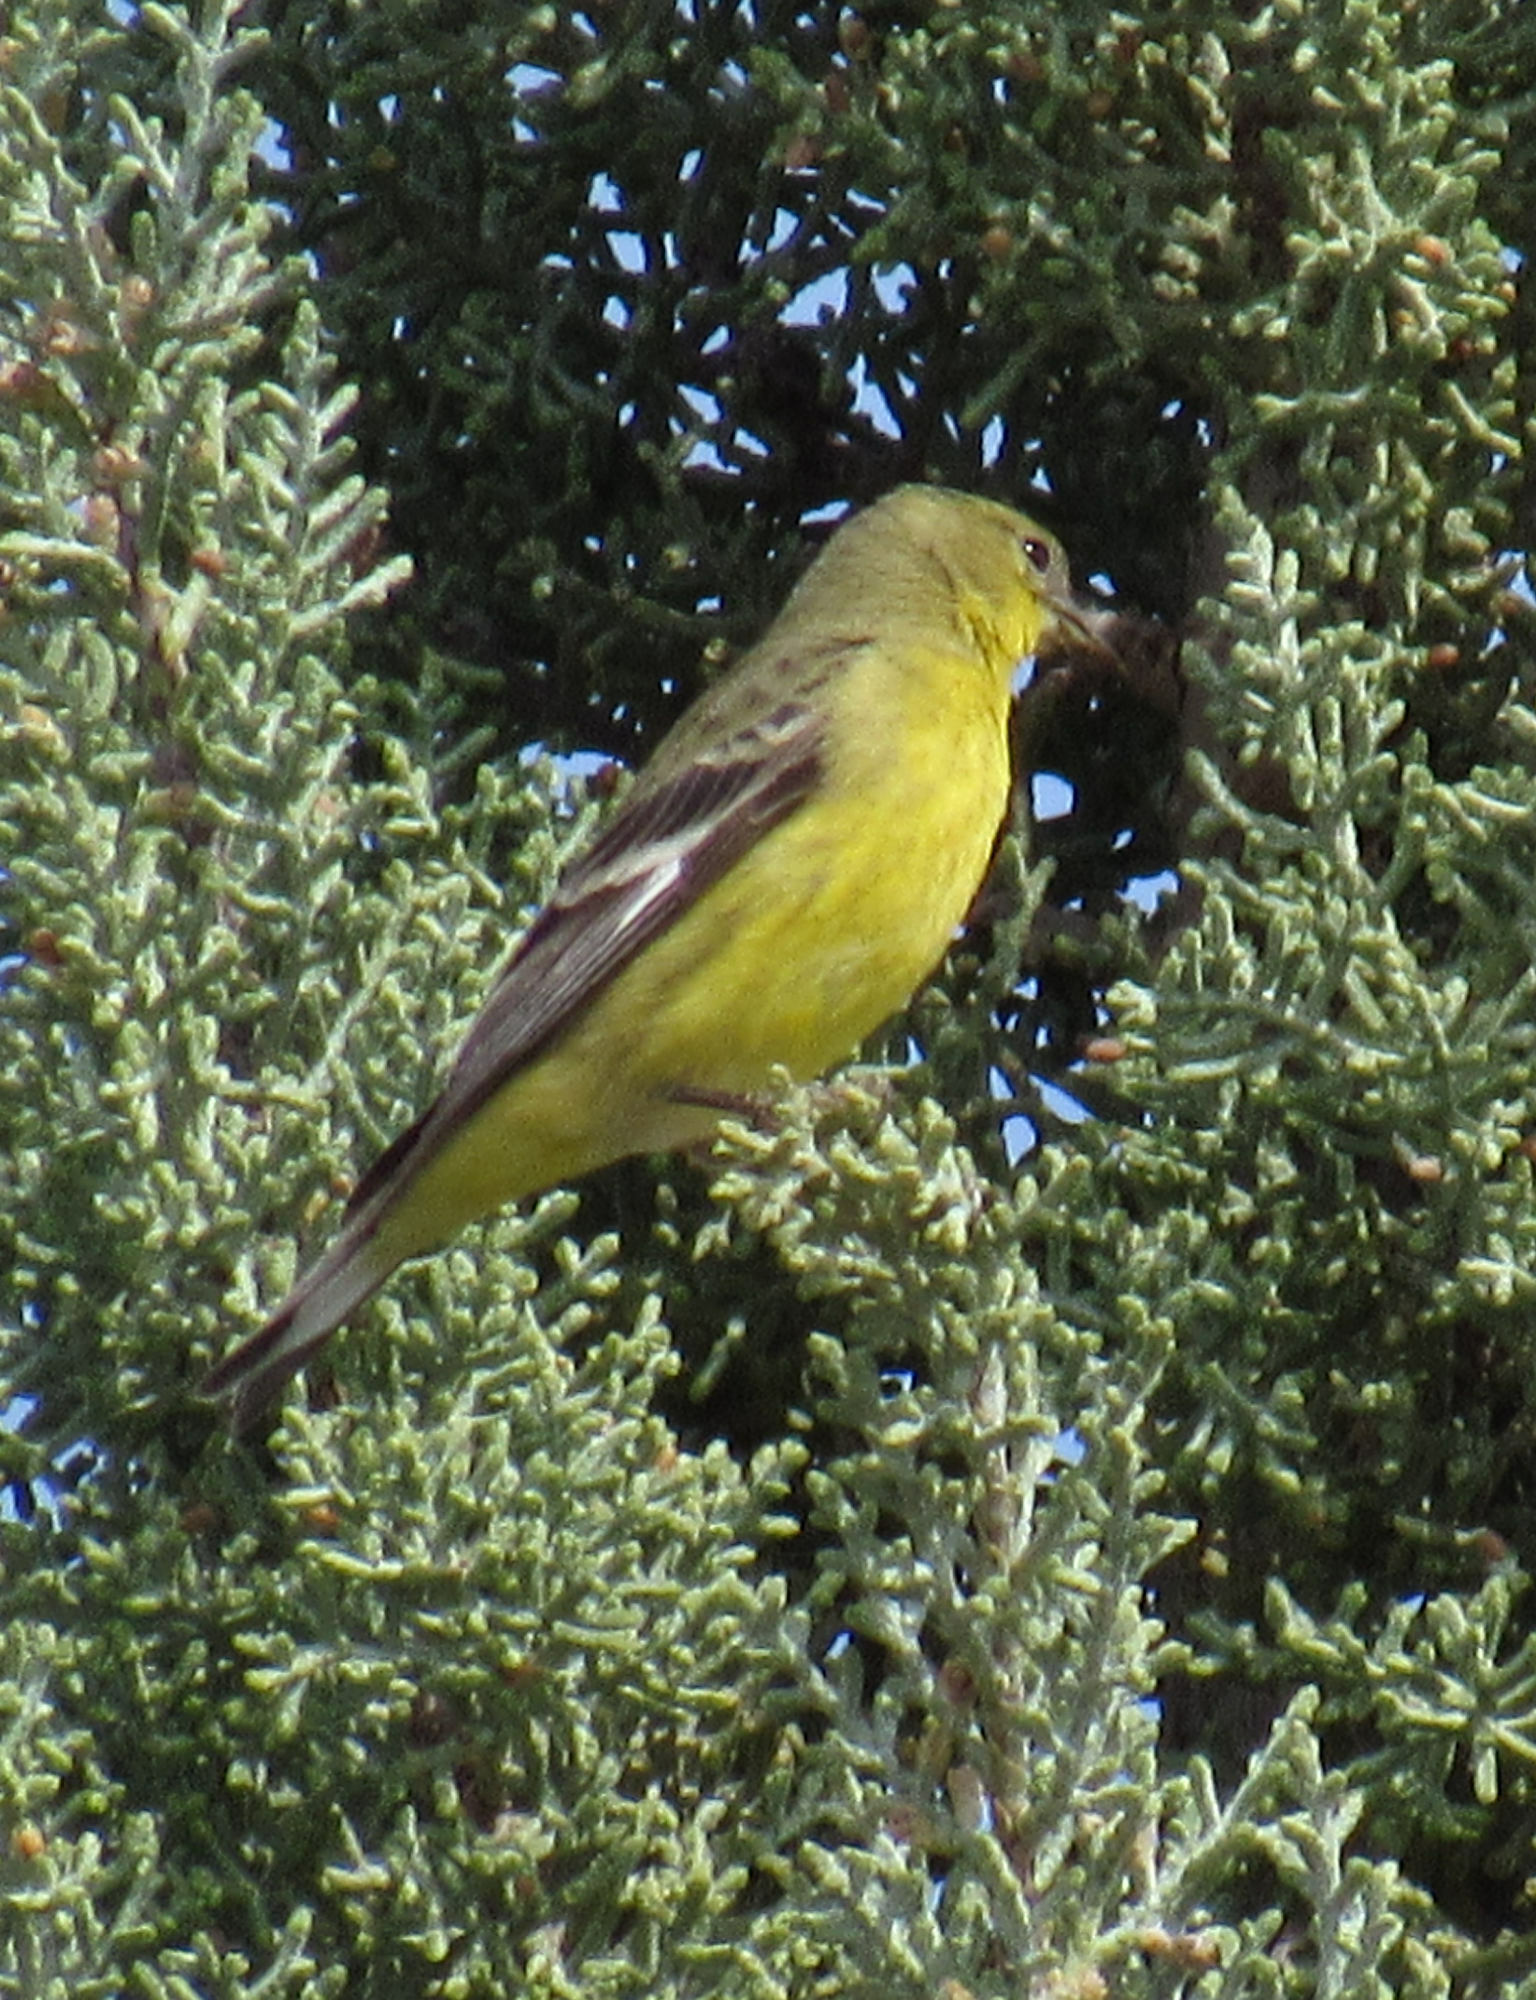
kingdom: Animalia
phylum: Chordata
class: Aves
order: Passeriformes
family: Fringillidae
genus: Spinus
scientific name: Spinus psaltria
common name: Lesser goldfinch
